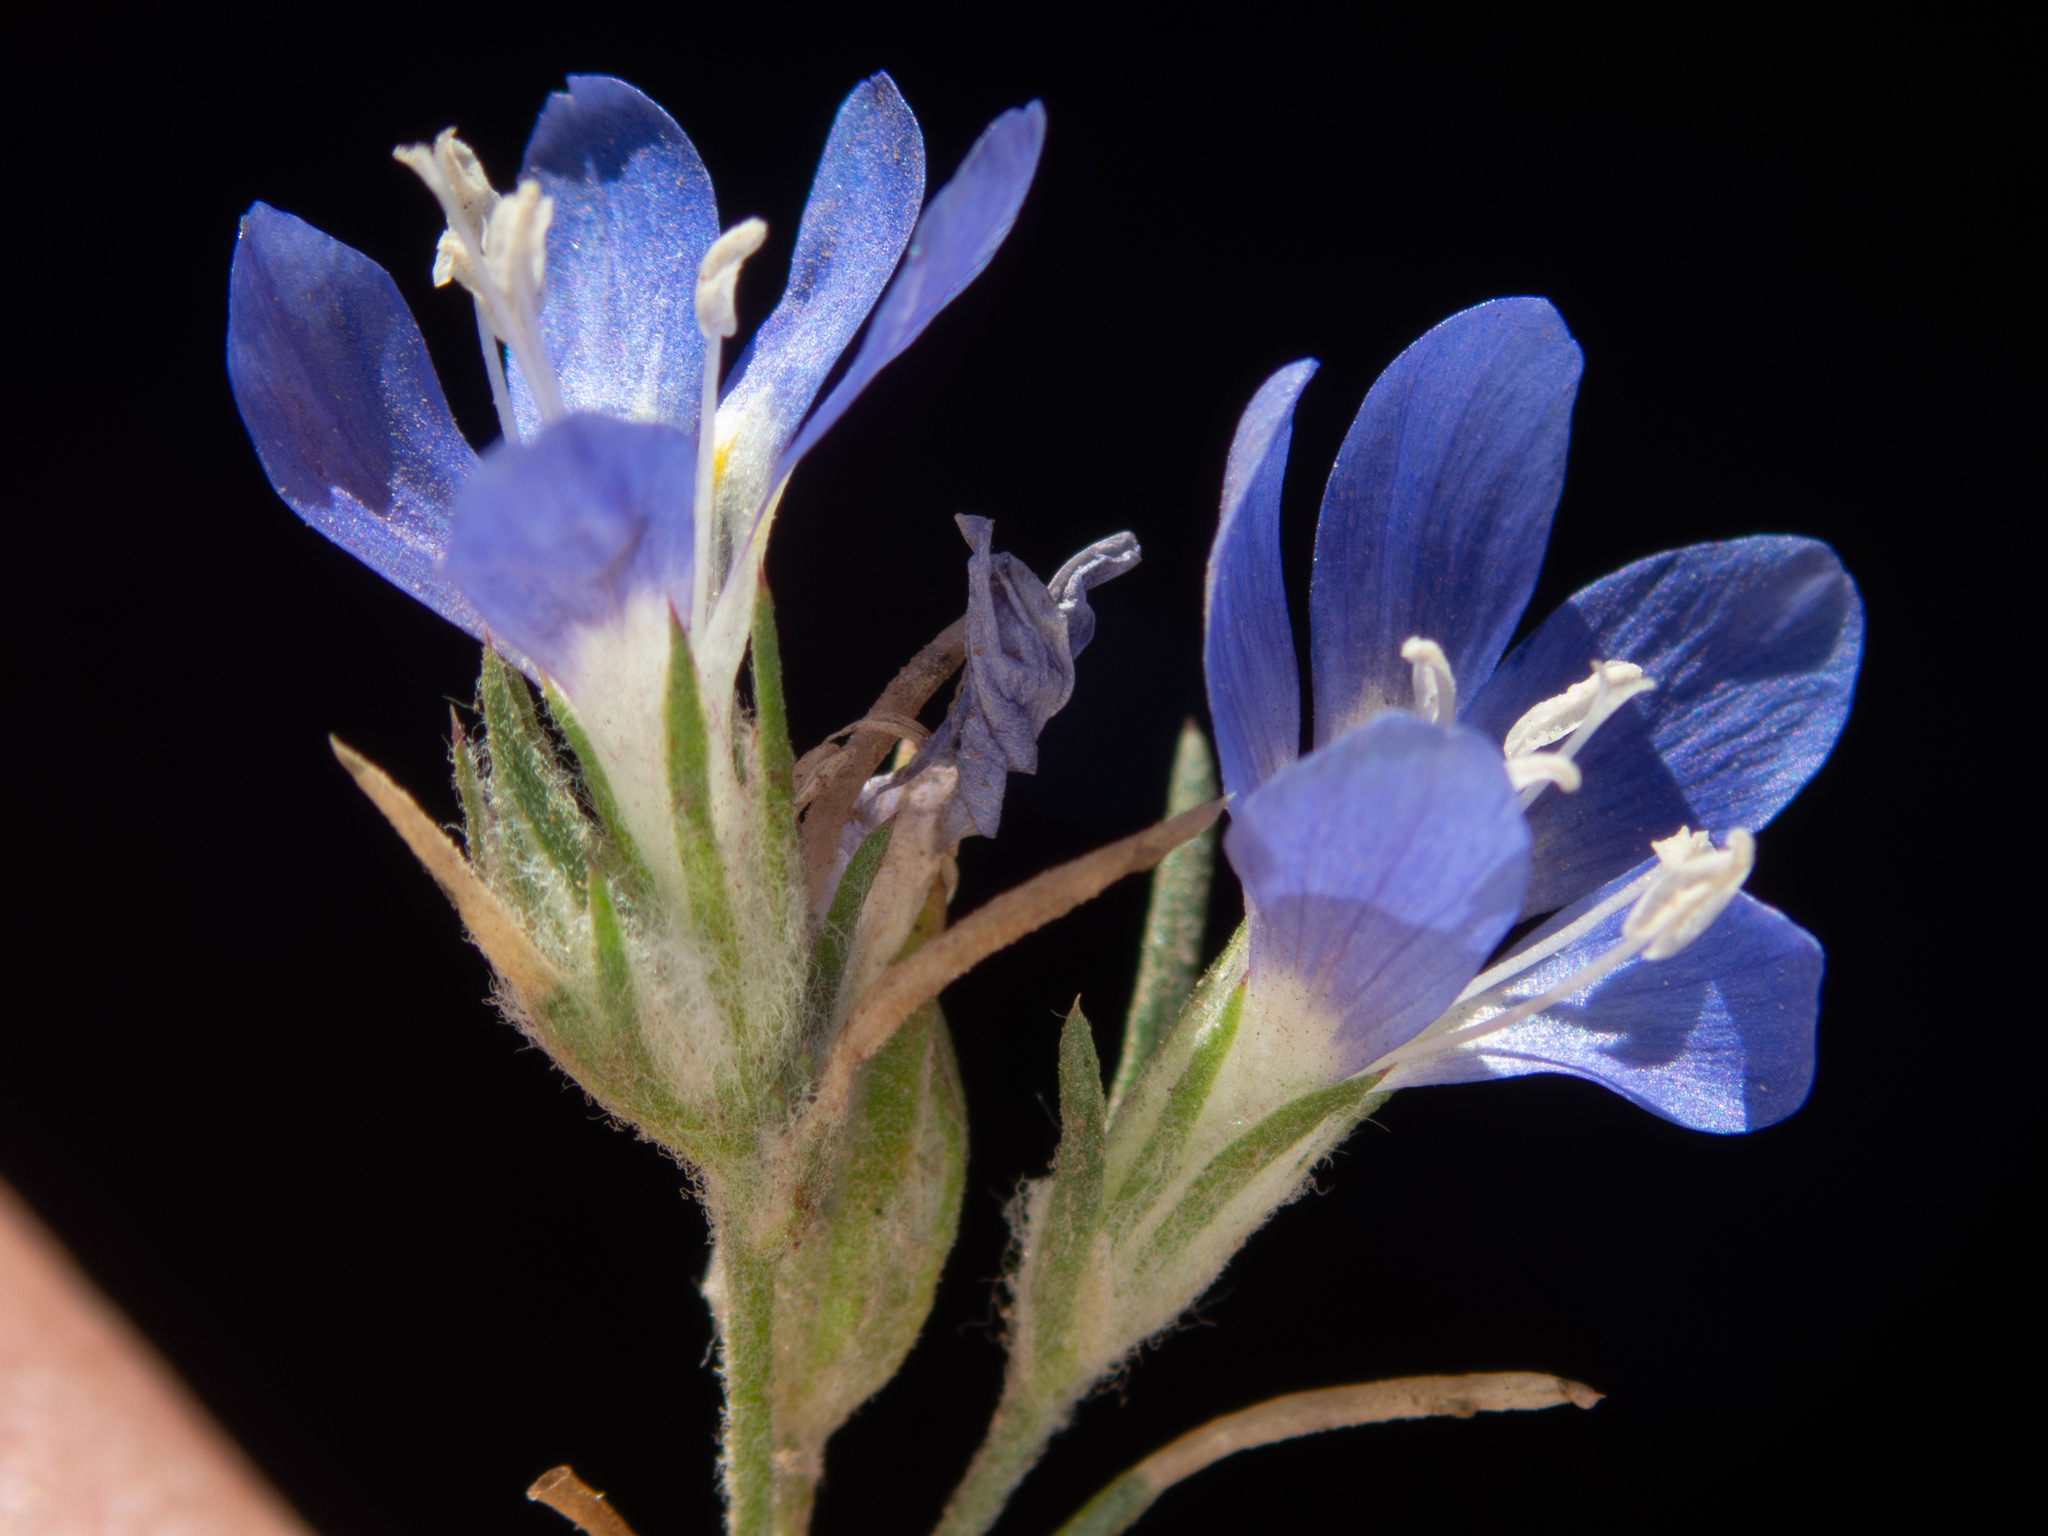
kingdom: Plantae
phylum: Tracheophyta
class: Magnoliopsida
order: Ericales
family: Polemoniaceae
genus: Eriastrum
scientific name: Eriastrum sapphirinum
